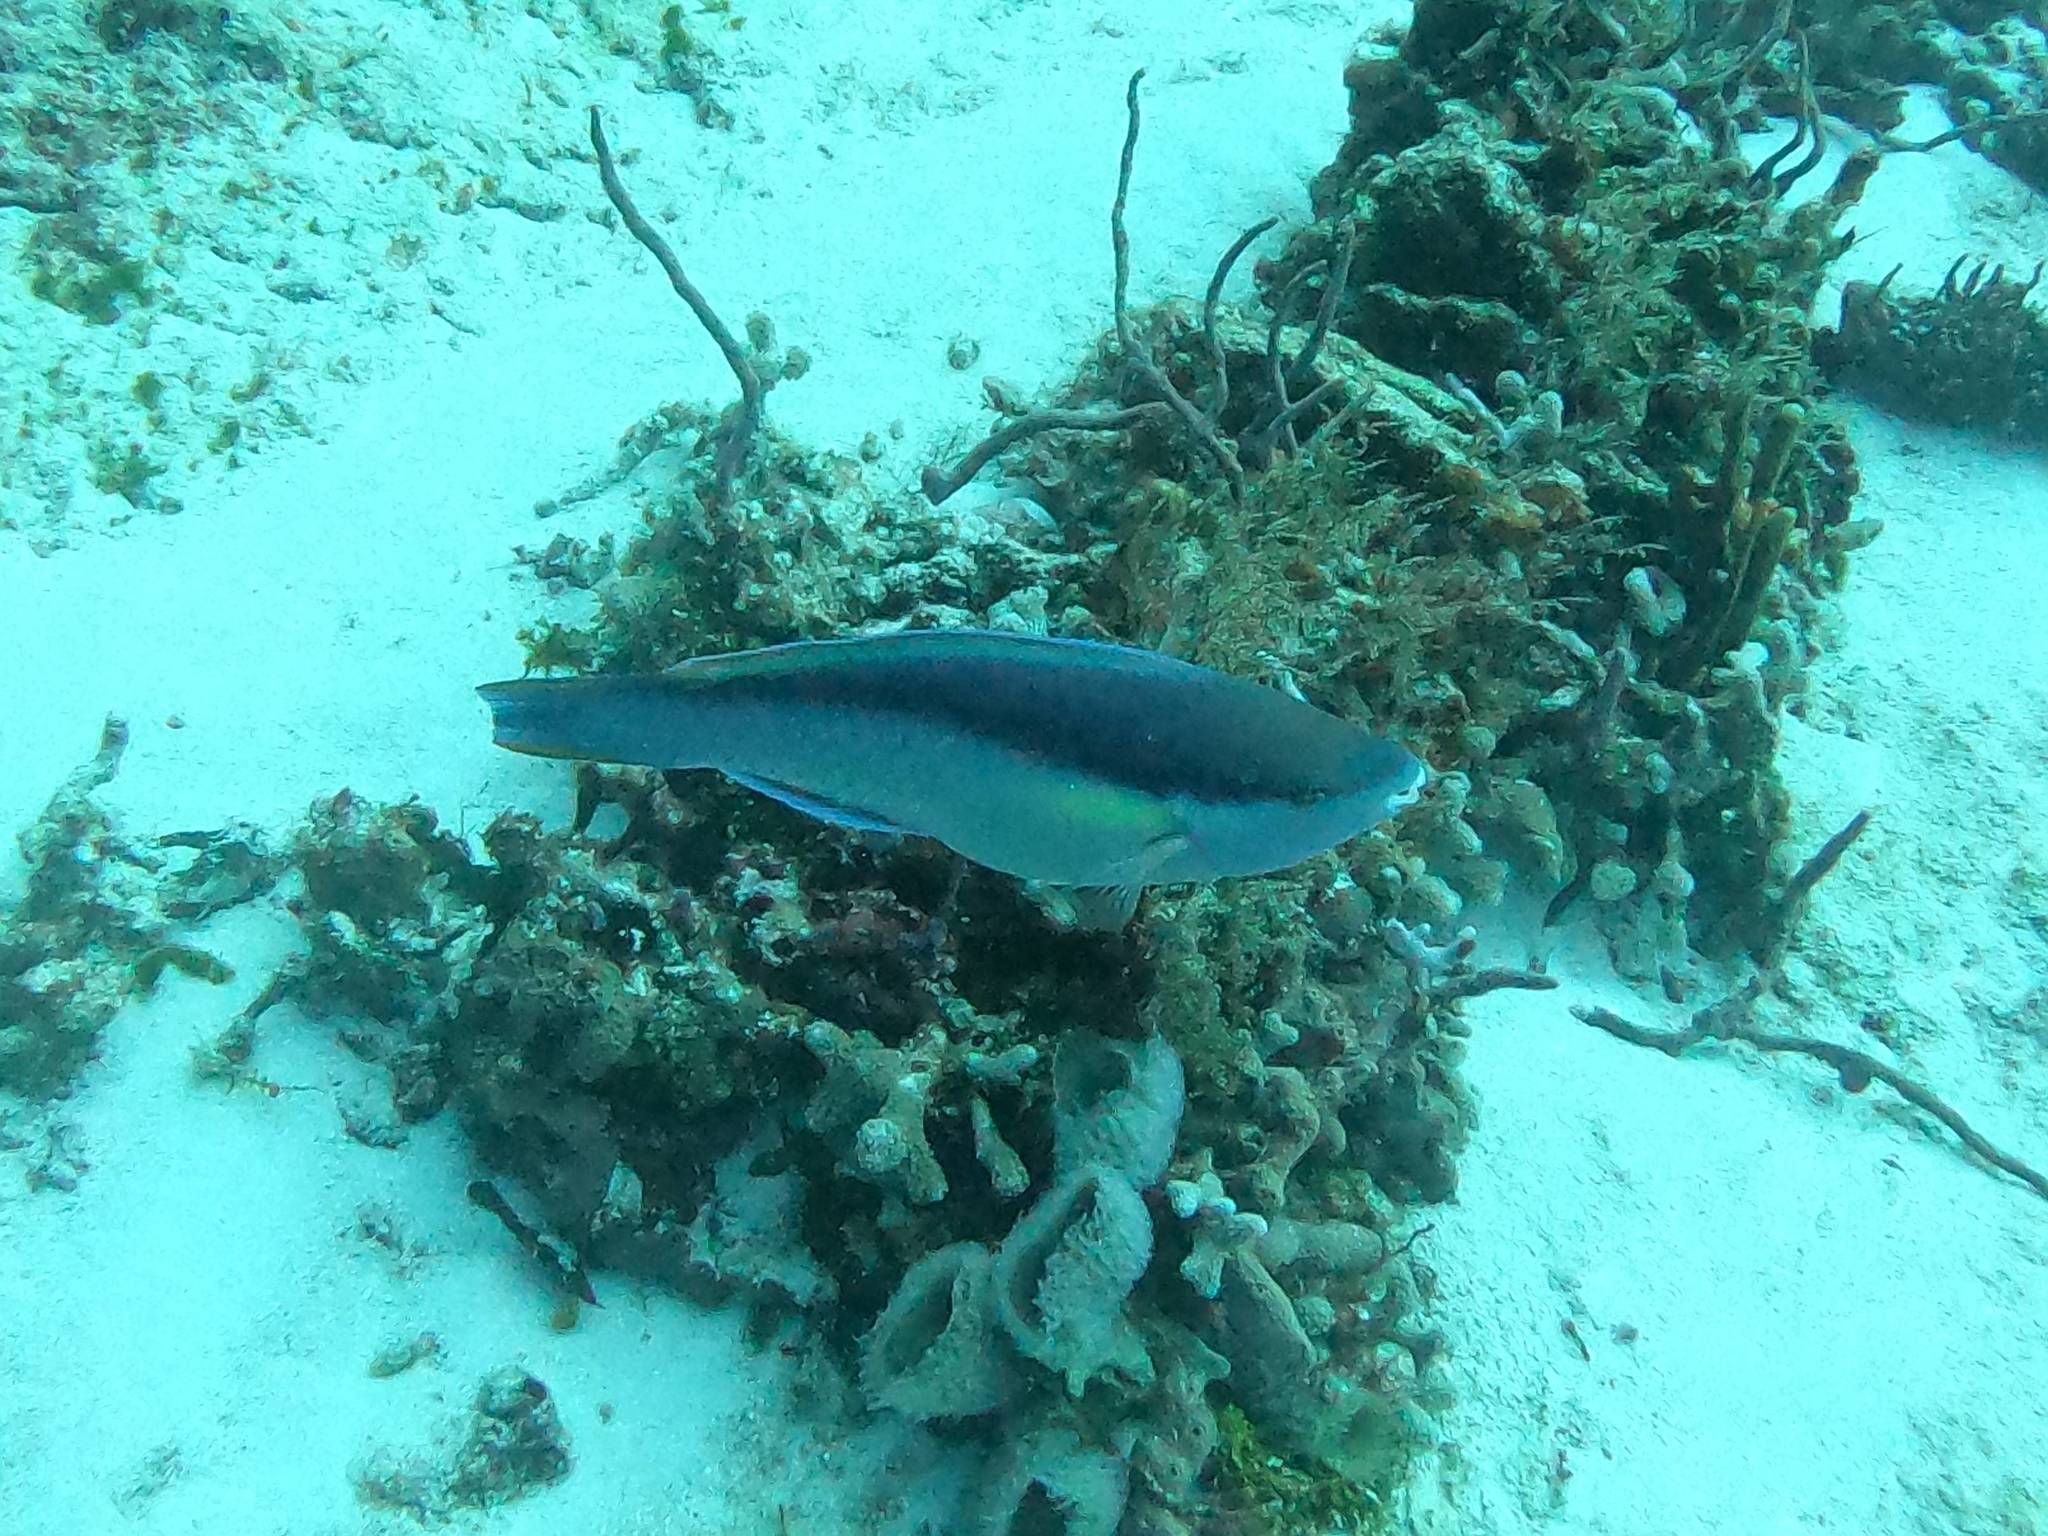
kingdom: Animalia
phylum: Chordata
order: Perciformes
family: Scaridae
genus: Scarus
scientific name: Scarus taeniopterus
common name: Princess parrotfish
